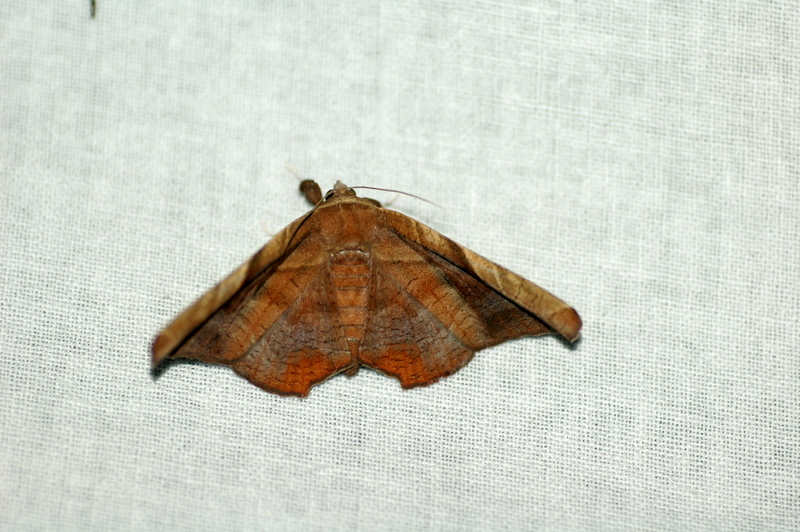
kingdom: Animalia
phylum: Arthropoda
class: Insecta
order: Lepidoptera
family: Erebidae
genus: Episparis
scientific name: Episparis tortuosalis
